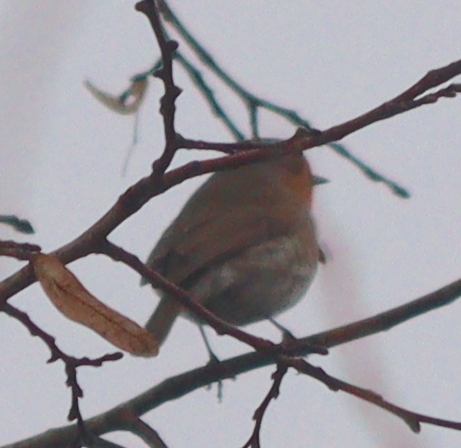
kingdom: Animalia
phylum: Chordata
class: Aves
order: Passeriformes
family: Muscicapidae
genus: Erithacus
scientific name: Erithacus rubecula
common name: European robin
